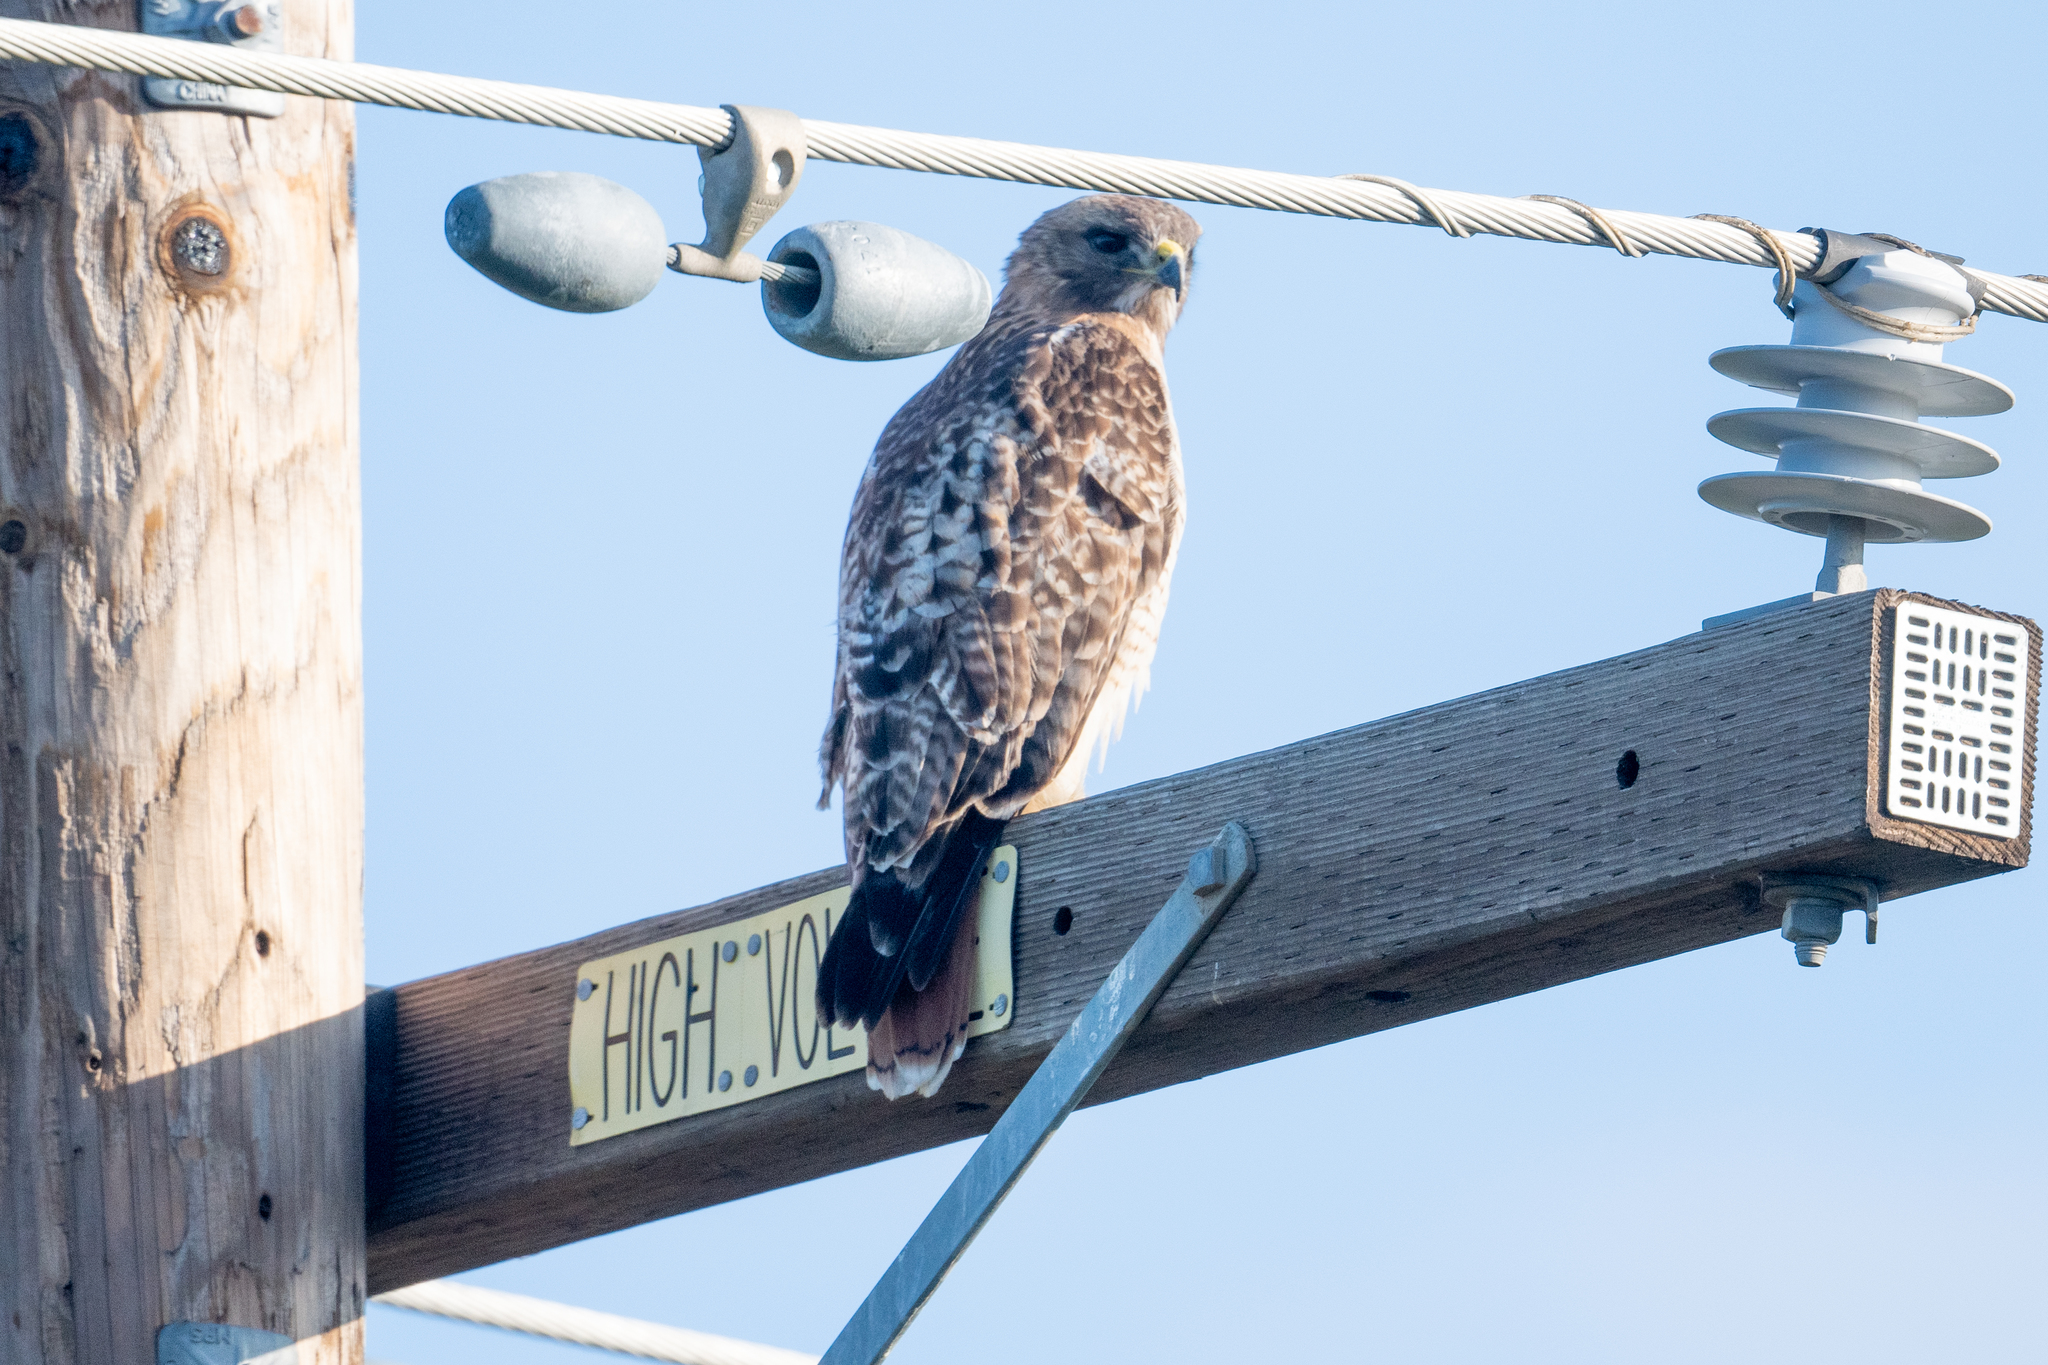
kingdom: Animalia
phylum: Chordata
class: Aves
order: Accipitriformes
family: Accipitridae
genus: Buteo
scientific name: Buteo jamaicensis
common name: Red-tailed hawk
